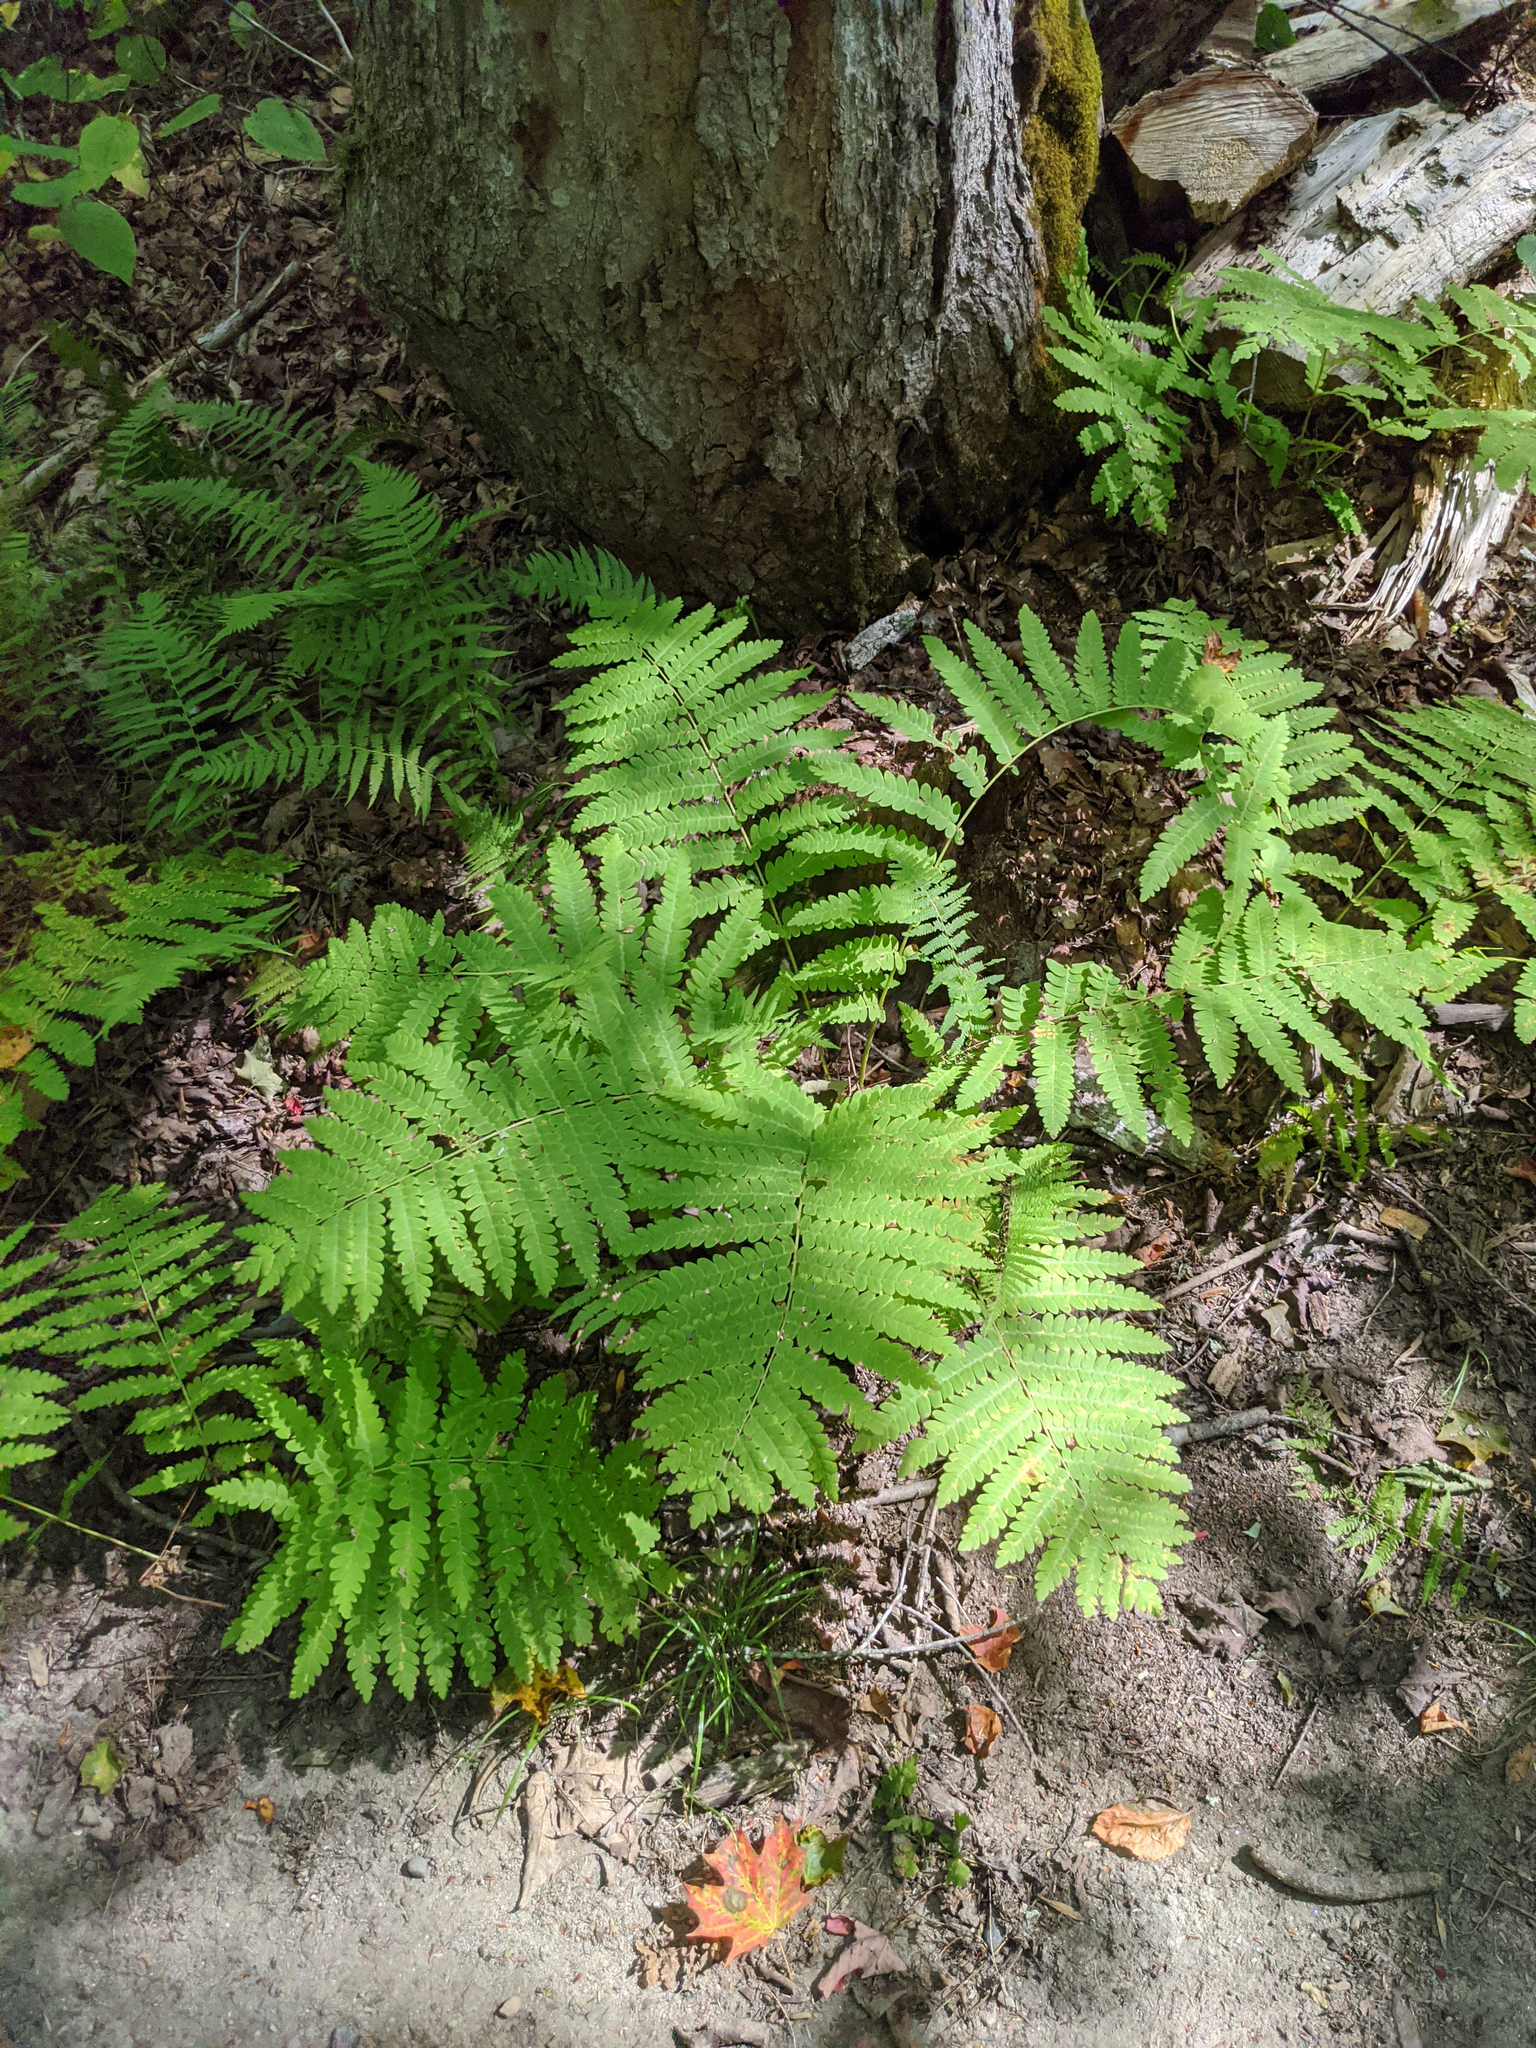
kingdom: Plantae
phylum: Tracheophyta
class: Polypodiopsida
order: Osmundales
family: Osmundaceae
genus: Claytosmunda
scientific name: Claytosmunda claytoniana
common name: Clayton's fern
